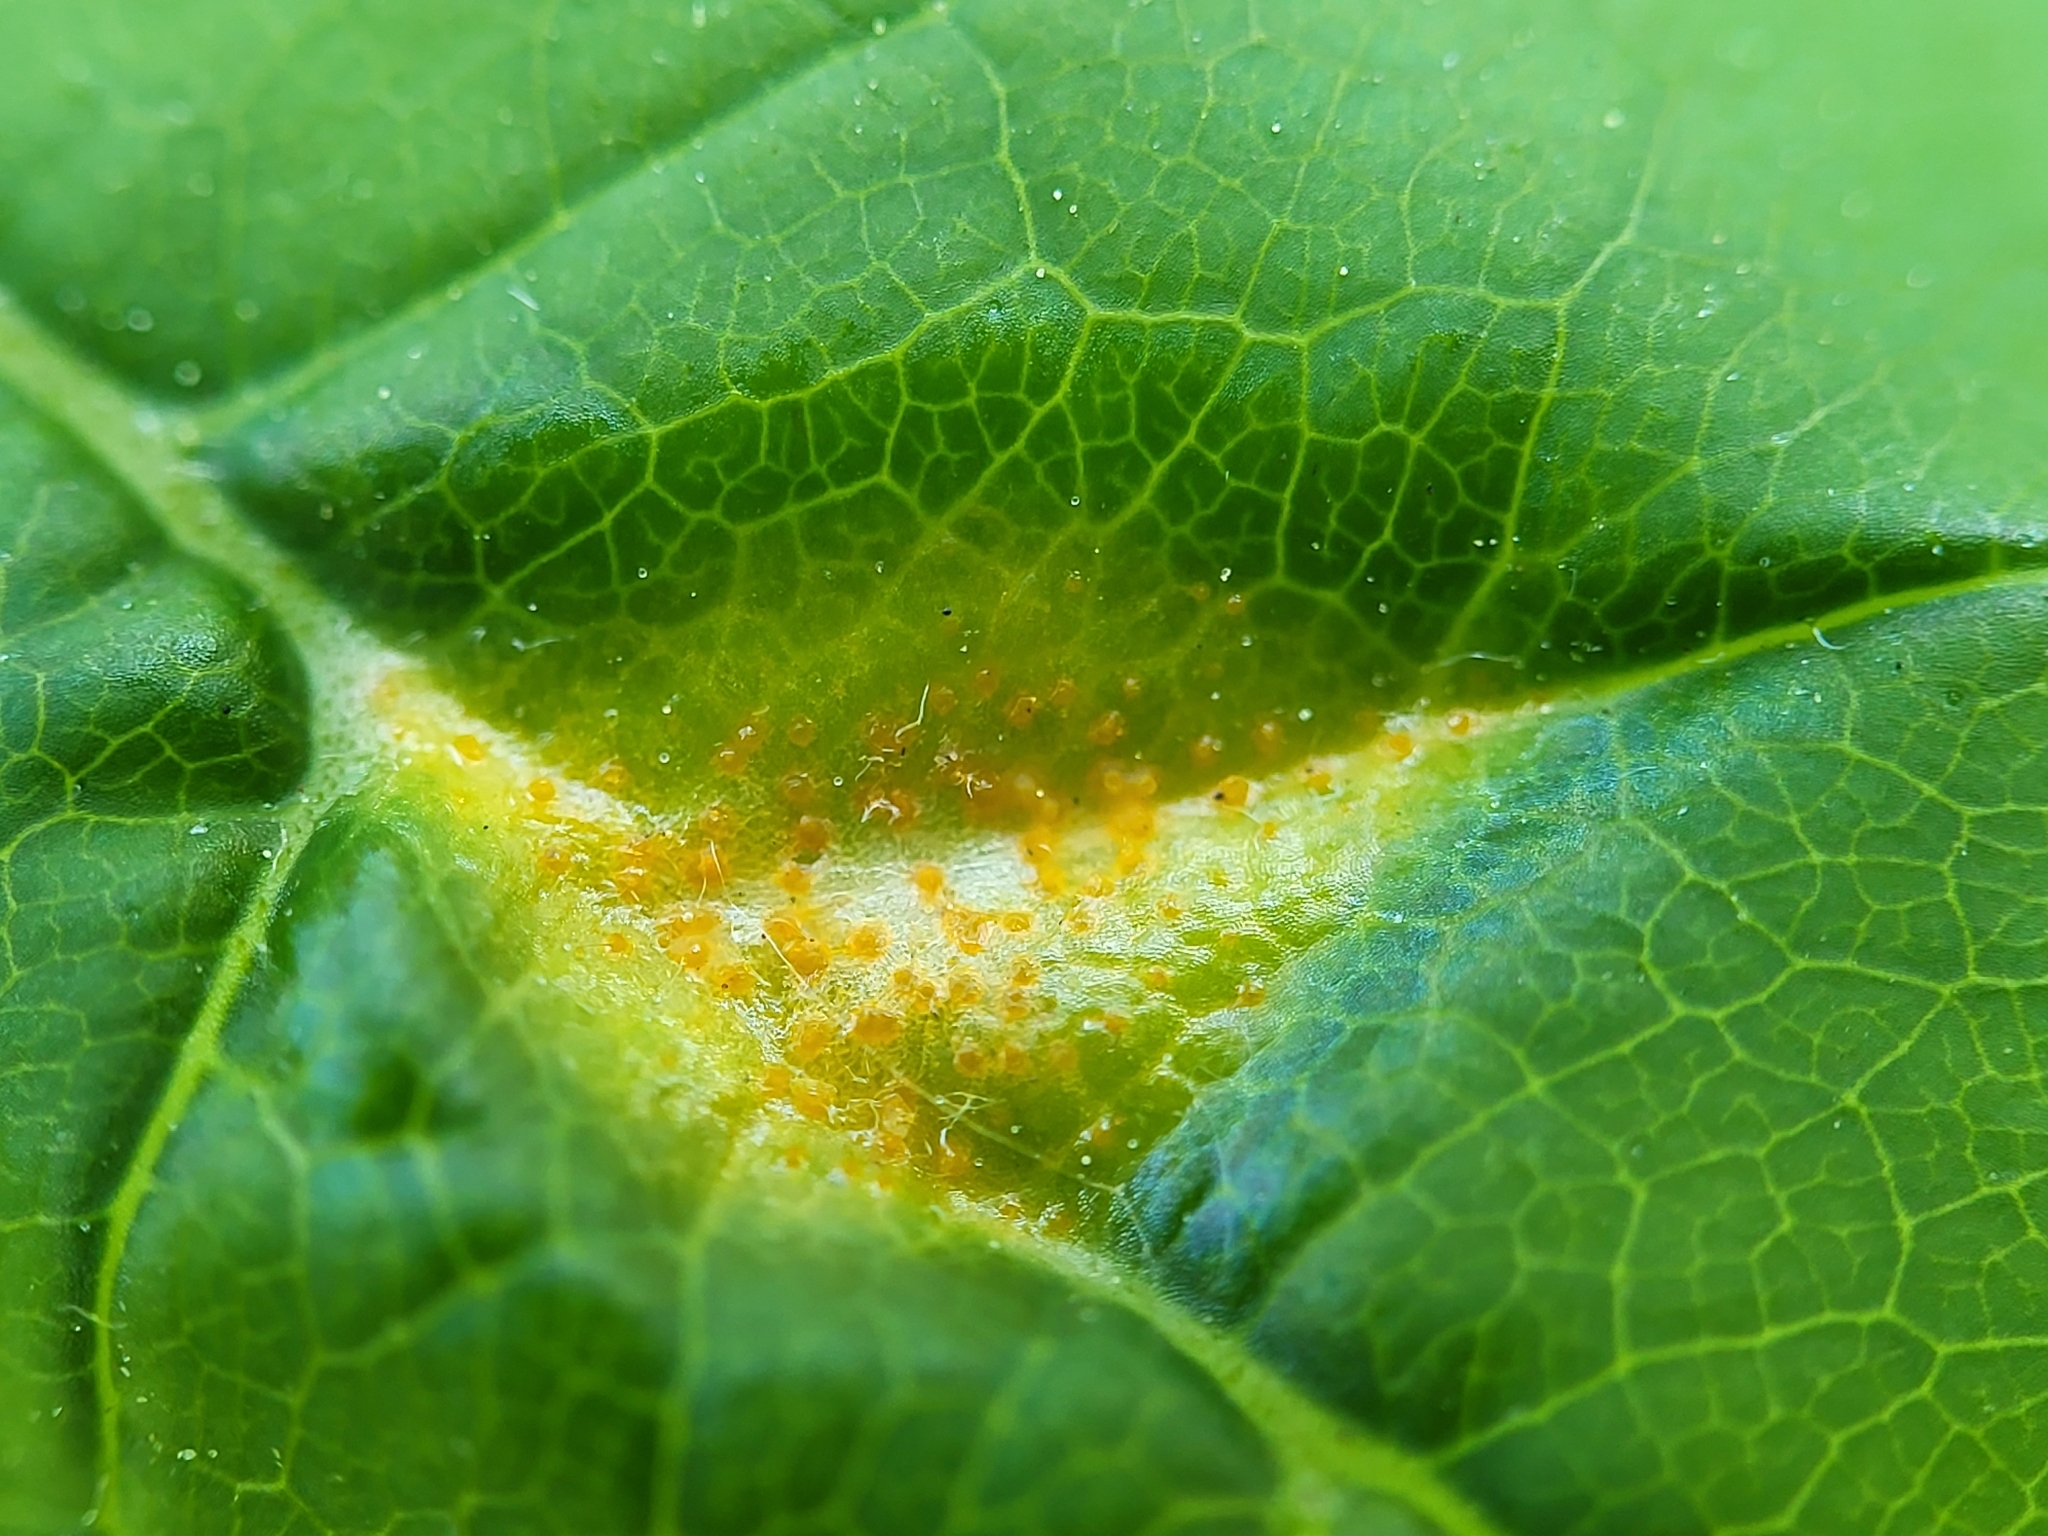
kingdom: Fungi
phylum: Basidiomycota
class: Pucciniomycetes
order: Pucciniales
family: Pucciniaceae
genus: Puccinia
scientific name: Puccinia sparganioidis
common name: Ash rust
